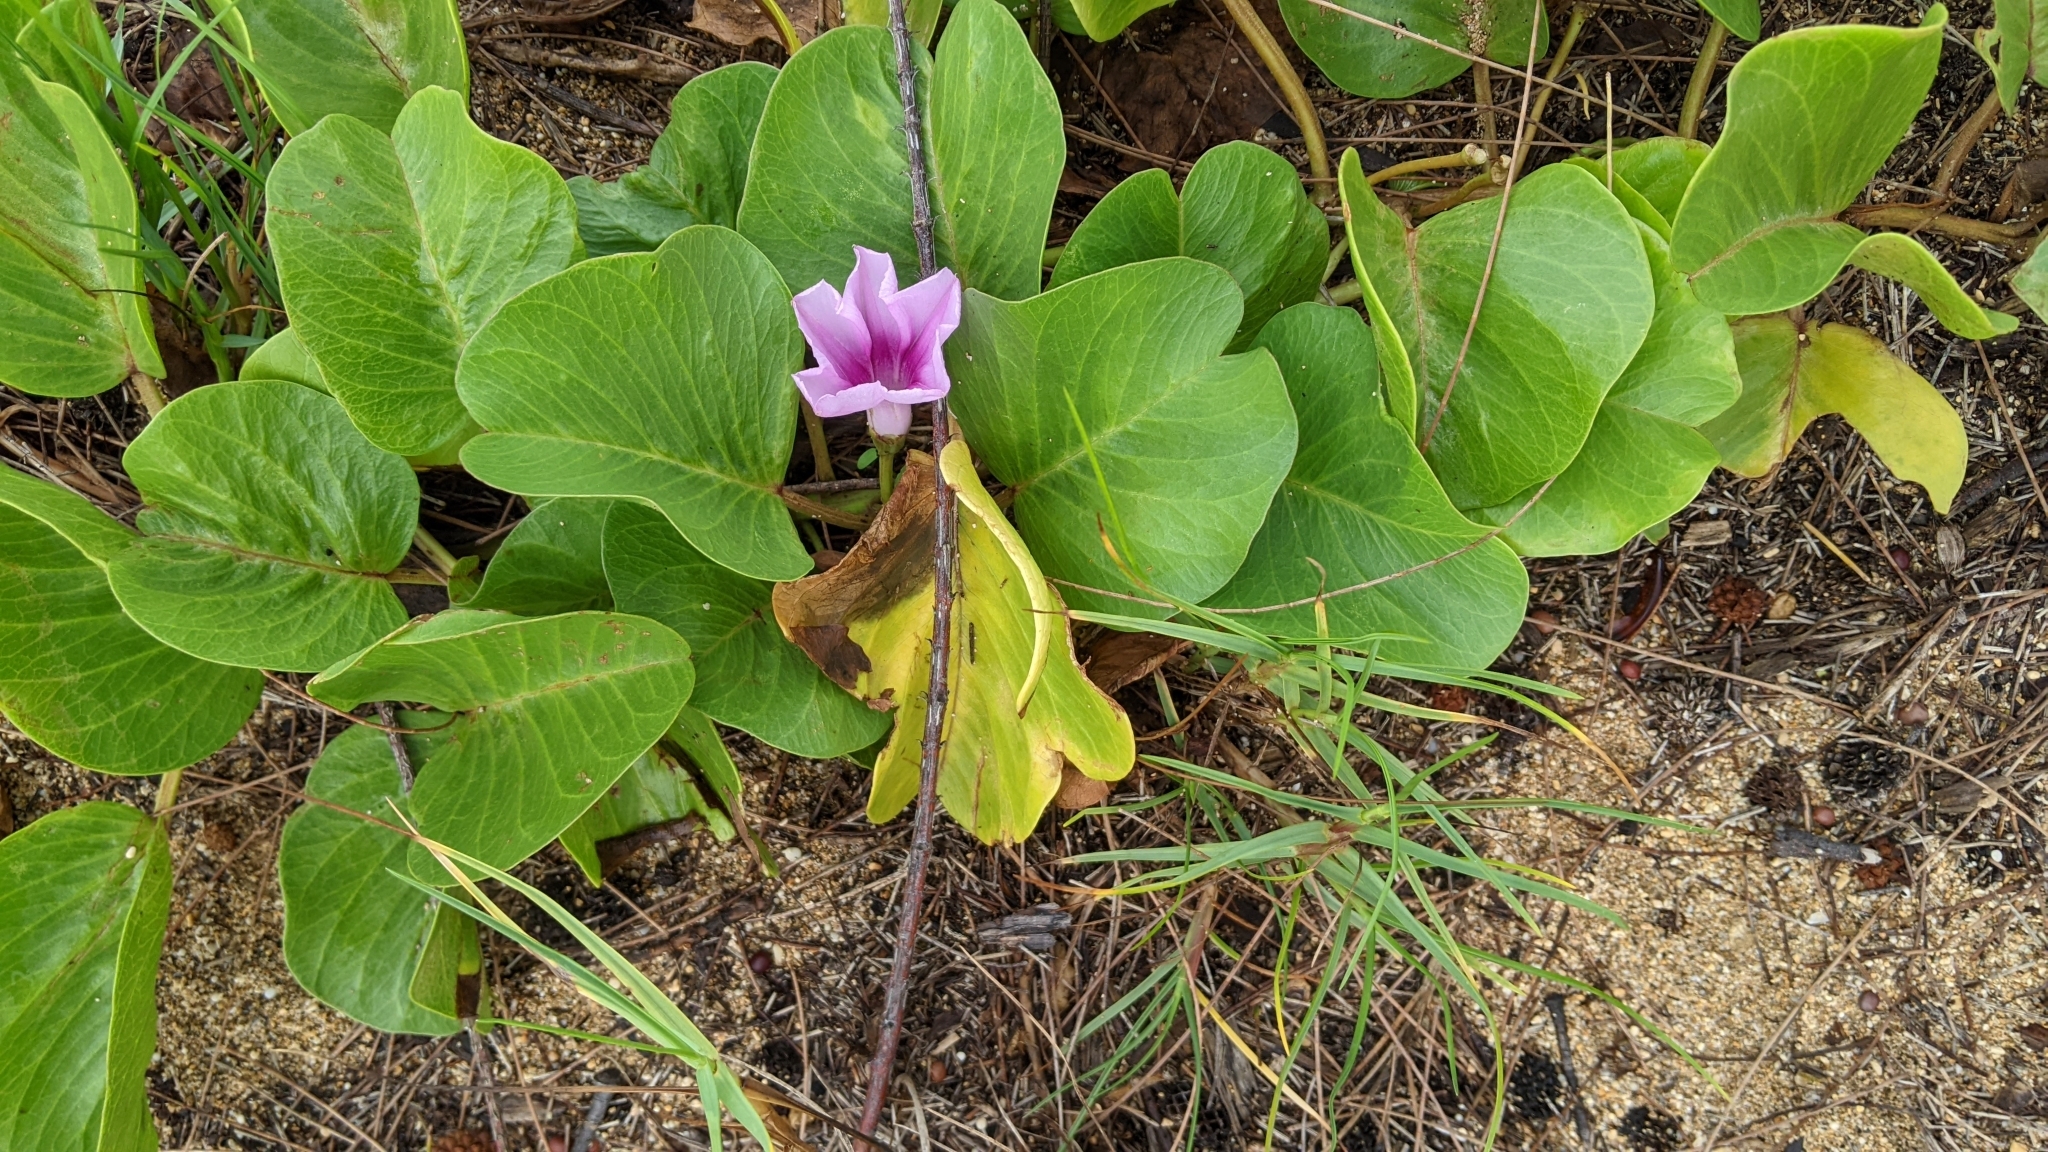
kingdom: Plantae
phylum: Tracheophyta
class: Magnoliopsida
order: Solanales
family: Convolvulaceae
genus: Ipomoea
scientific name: Ipomoea pes-caprae
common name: Beach morning glory
